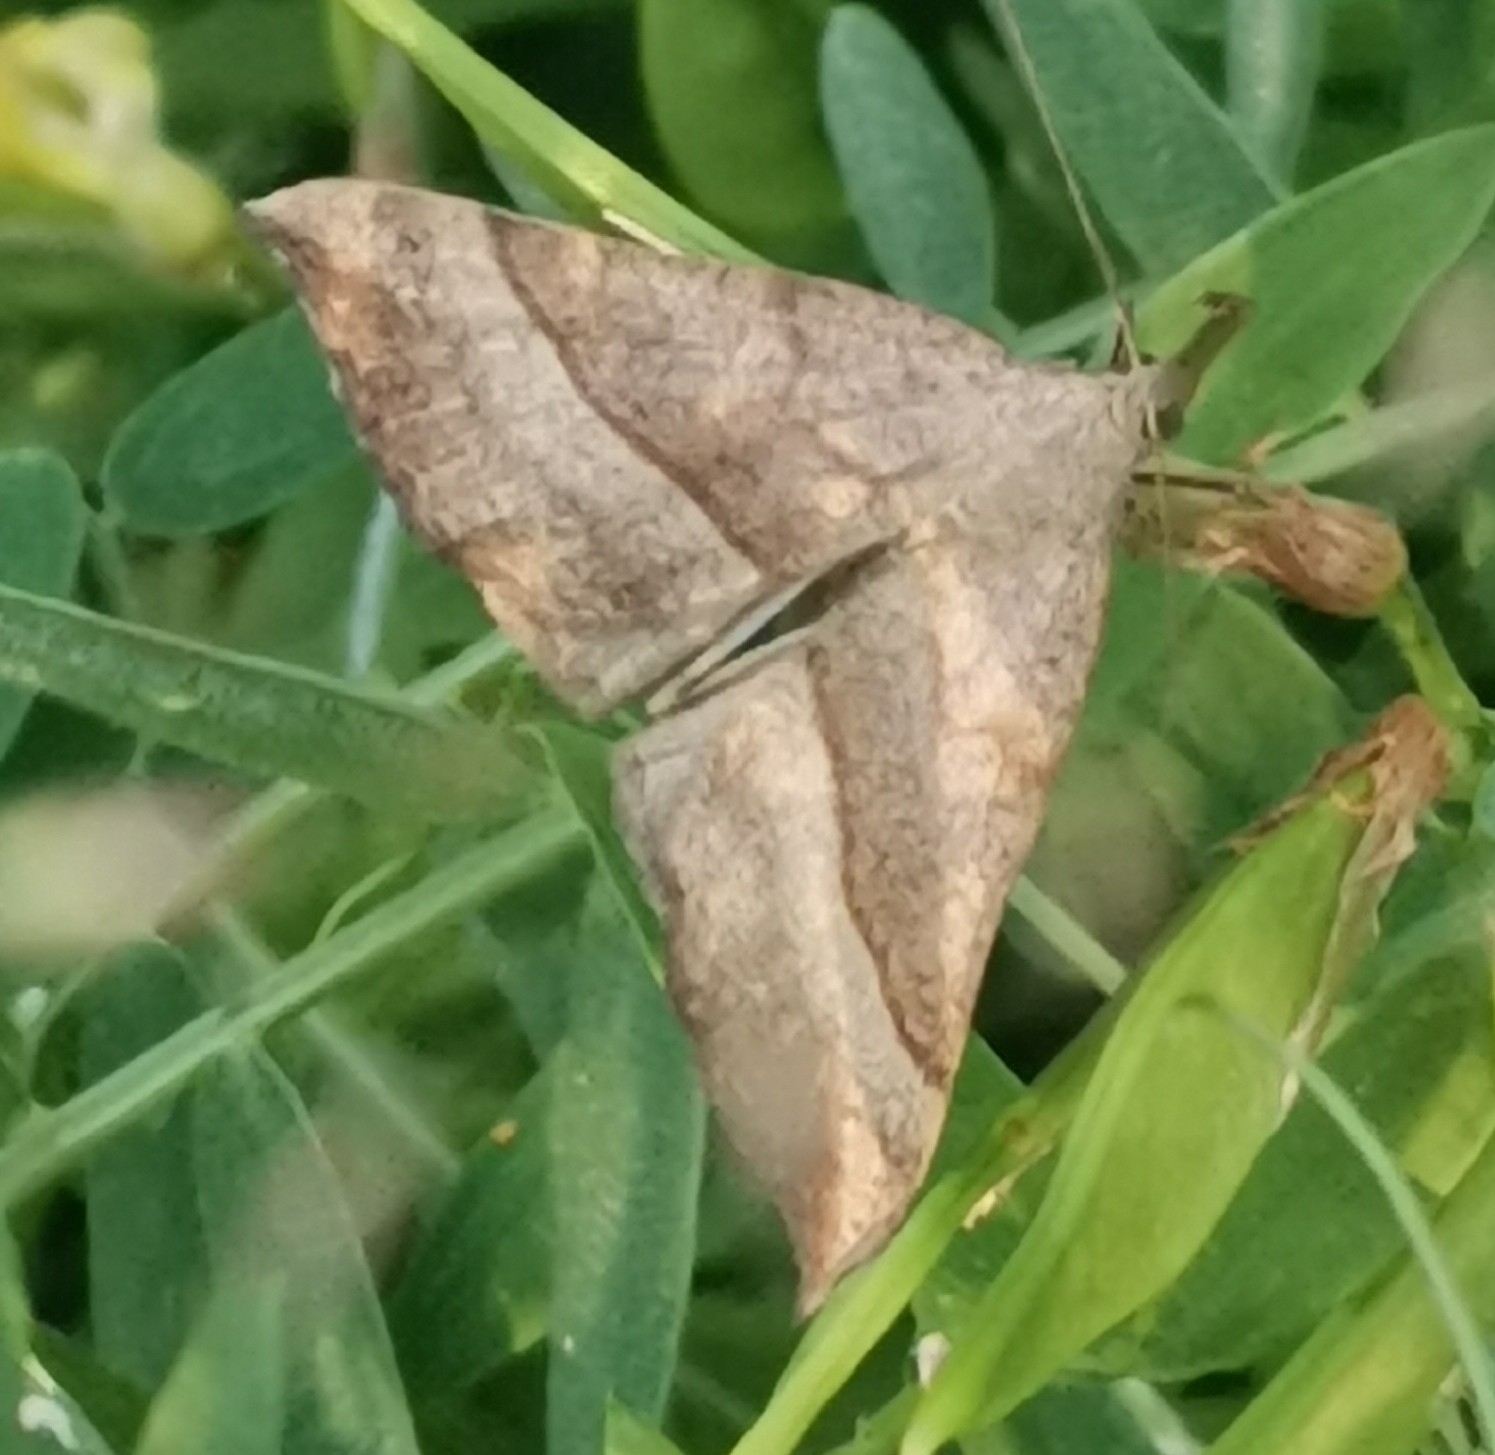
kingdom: Animalia
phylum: Arthropoda
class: Insecta
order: Lepidoptera
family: Erebidae
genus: Hypena
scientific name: Hypena proboscidalis
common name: Snout
